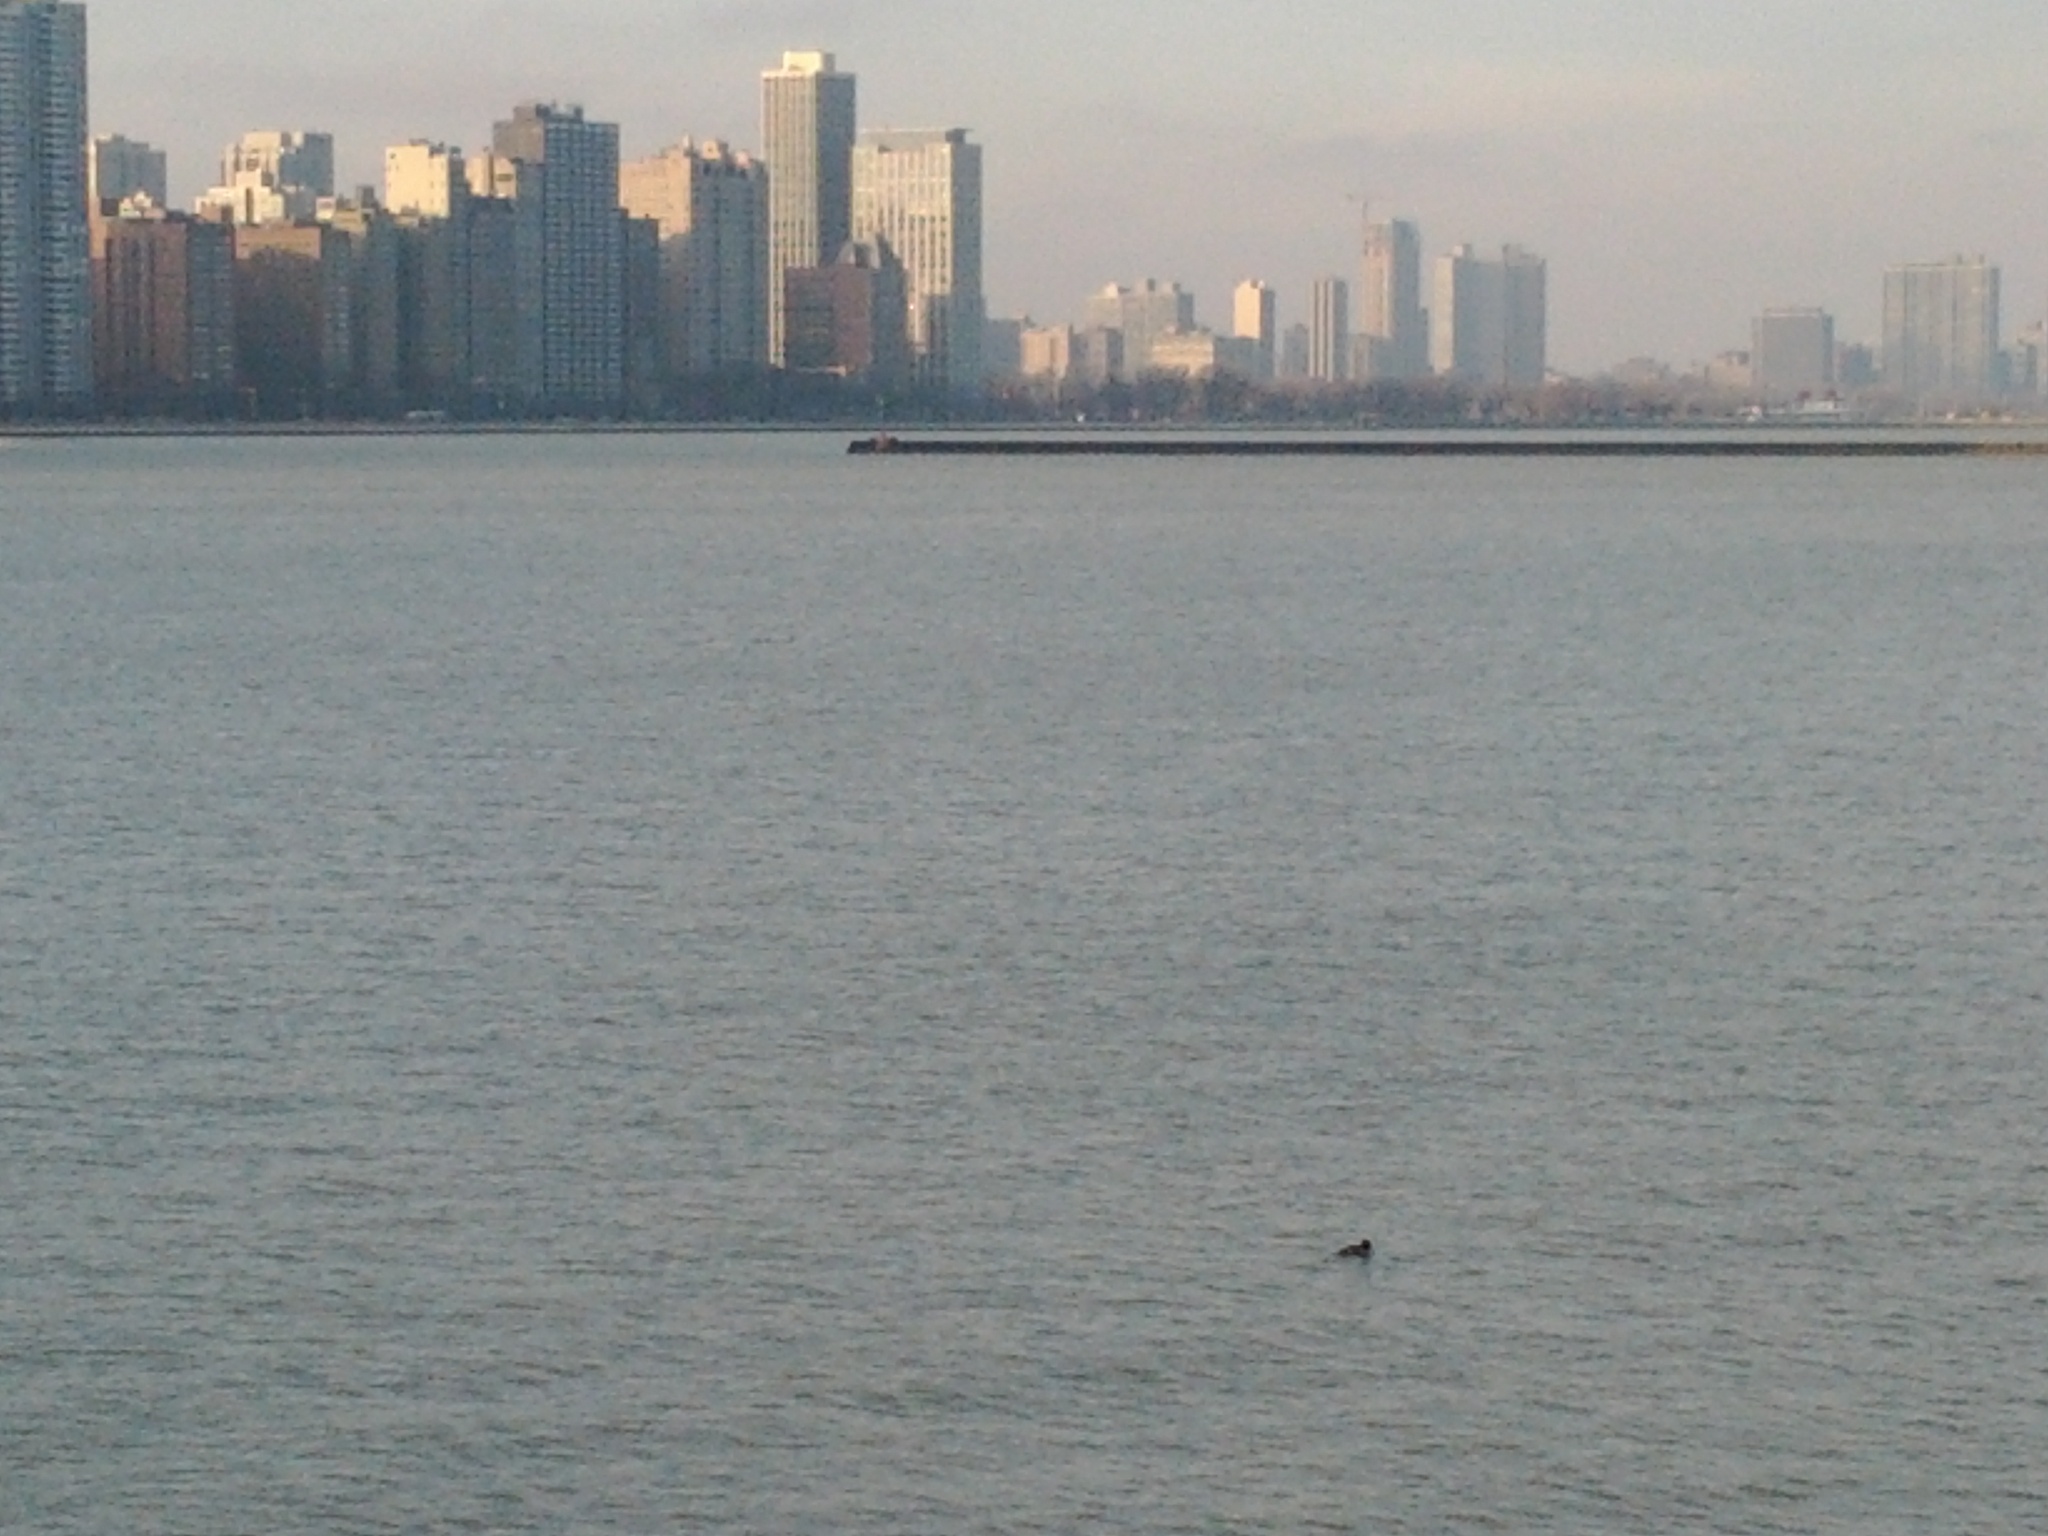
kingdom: Animalia
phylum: Chordata
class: Aves
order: Anseriformes
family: Anatidae
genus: Bucephala
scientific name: Bucephala clangula
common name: Common goldeneye
